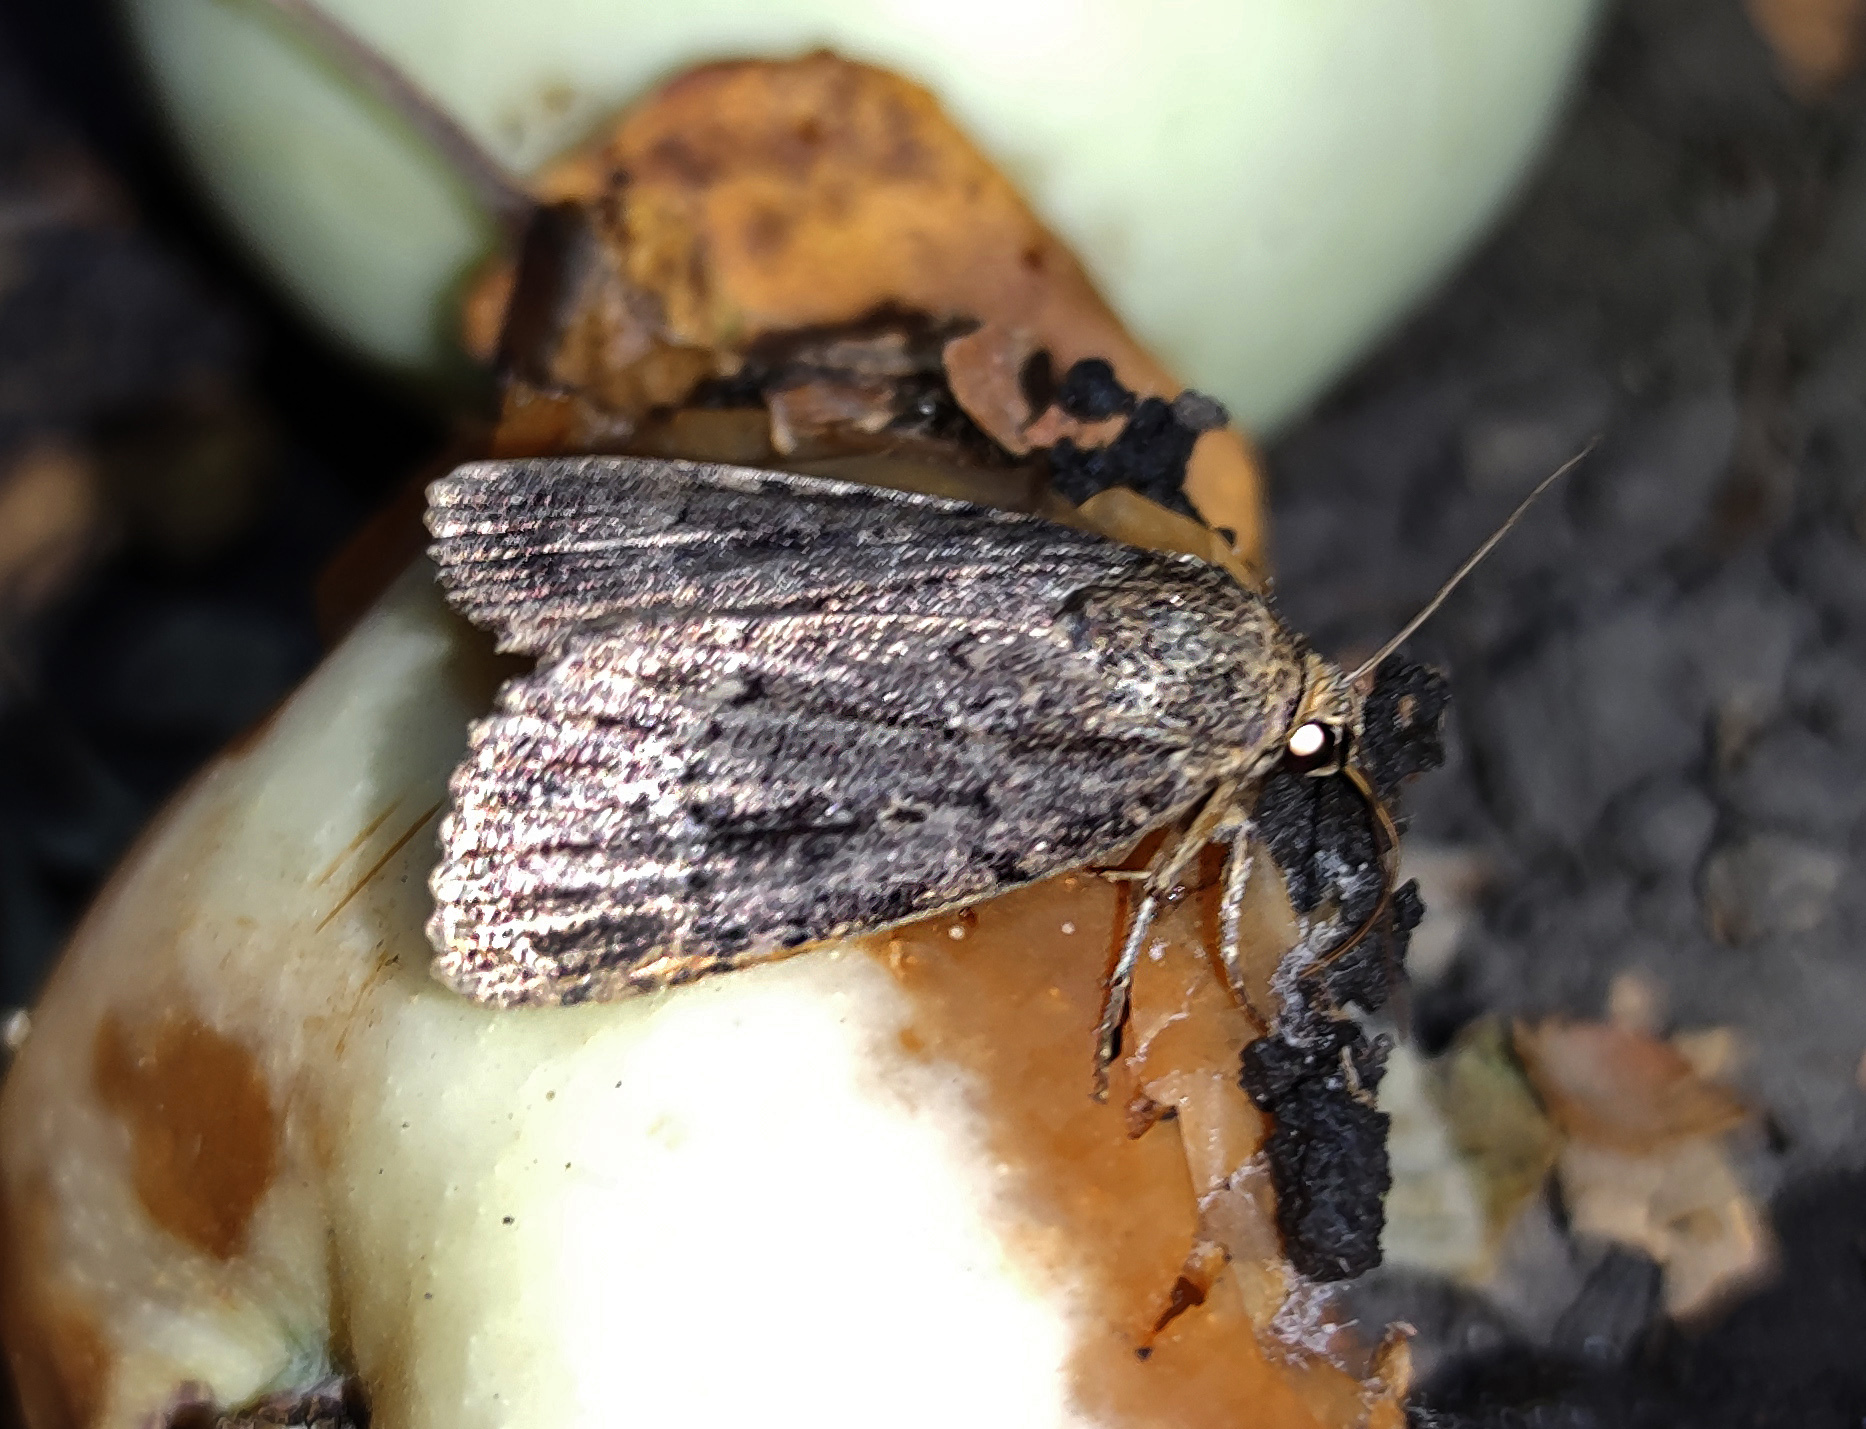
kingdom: Animalia
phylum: Arthropoda
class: Insecta
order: Lepidoptera
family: Noctuidae
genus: Amphipyra
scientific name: Amphipyra pyramidea
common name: Copper underwing
